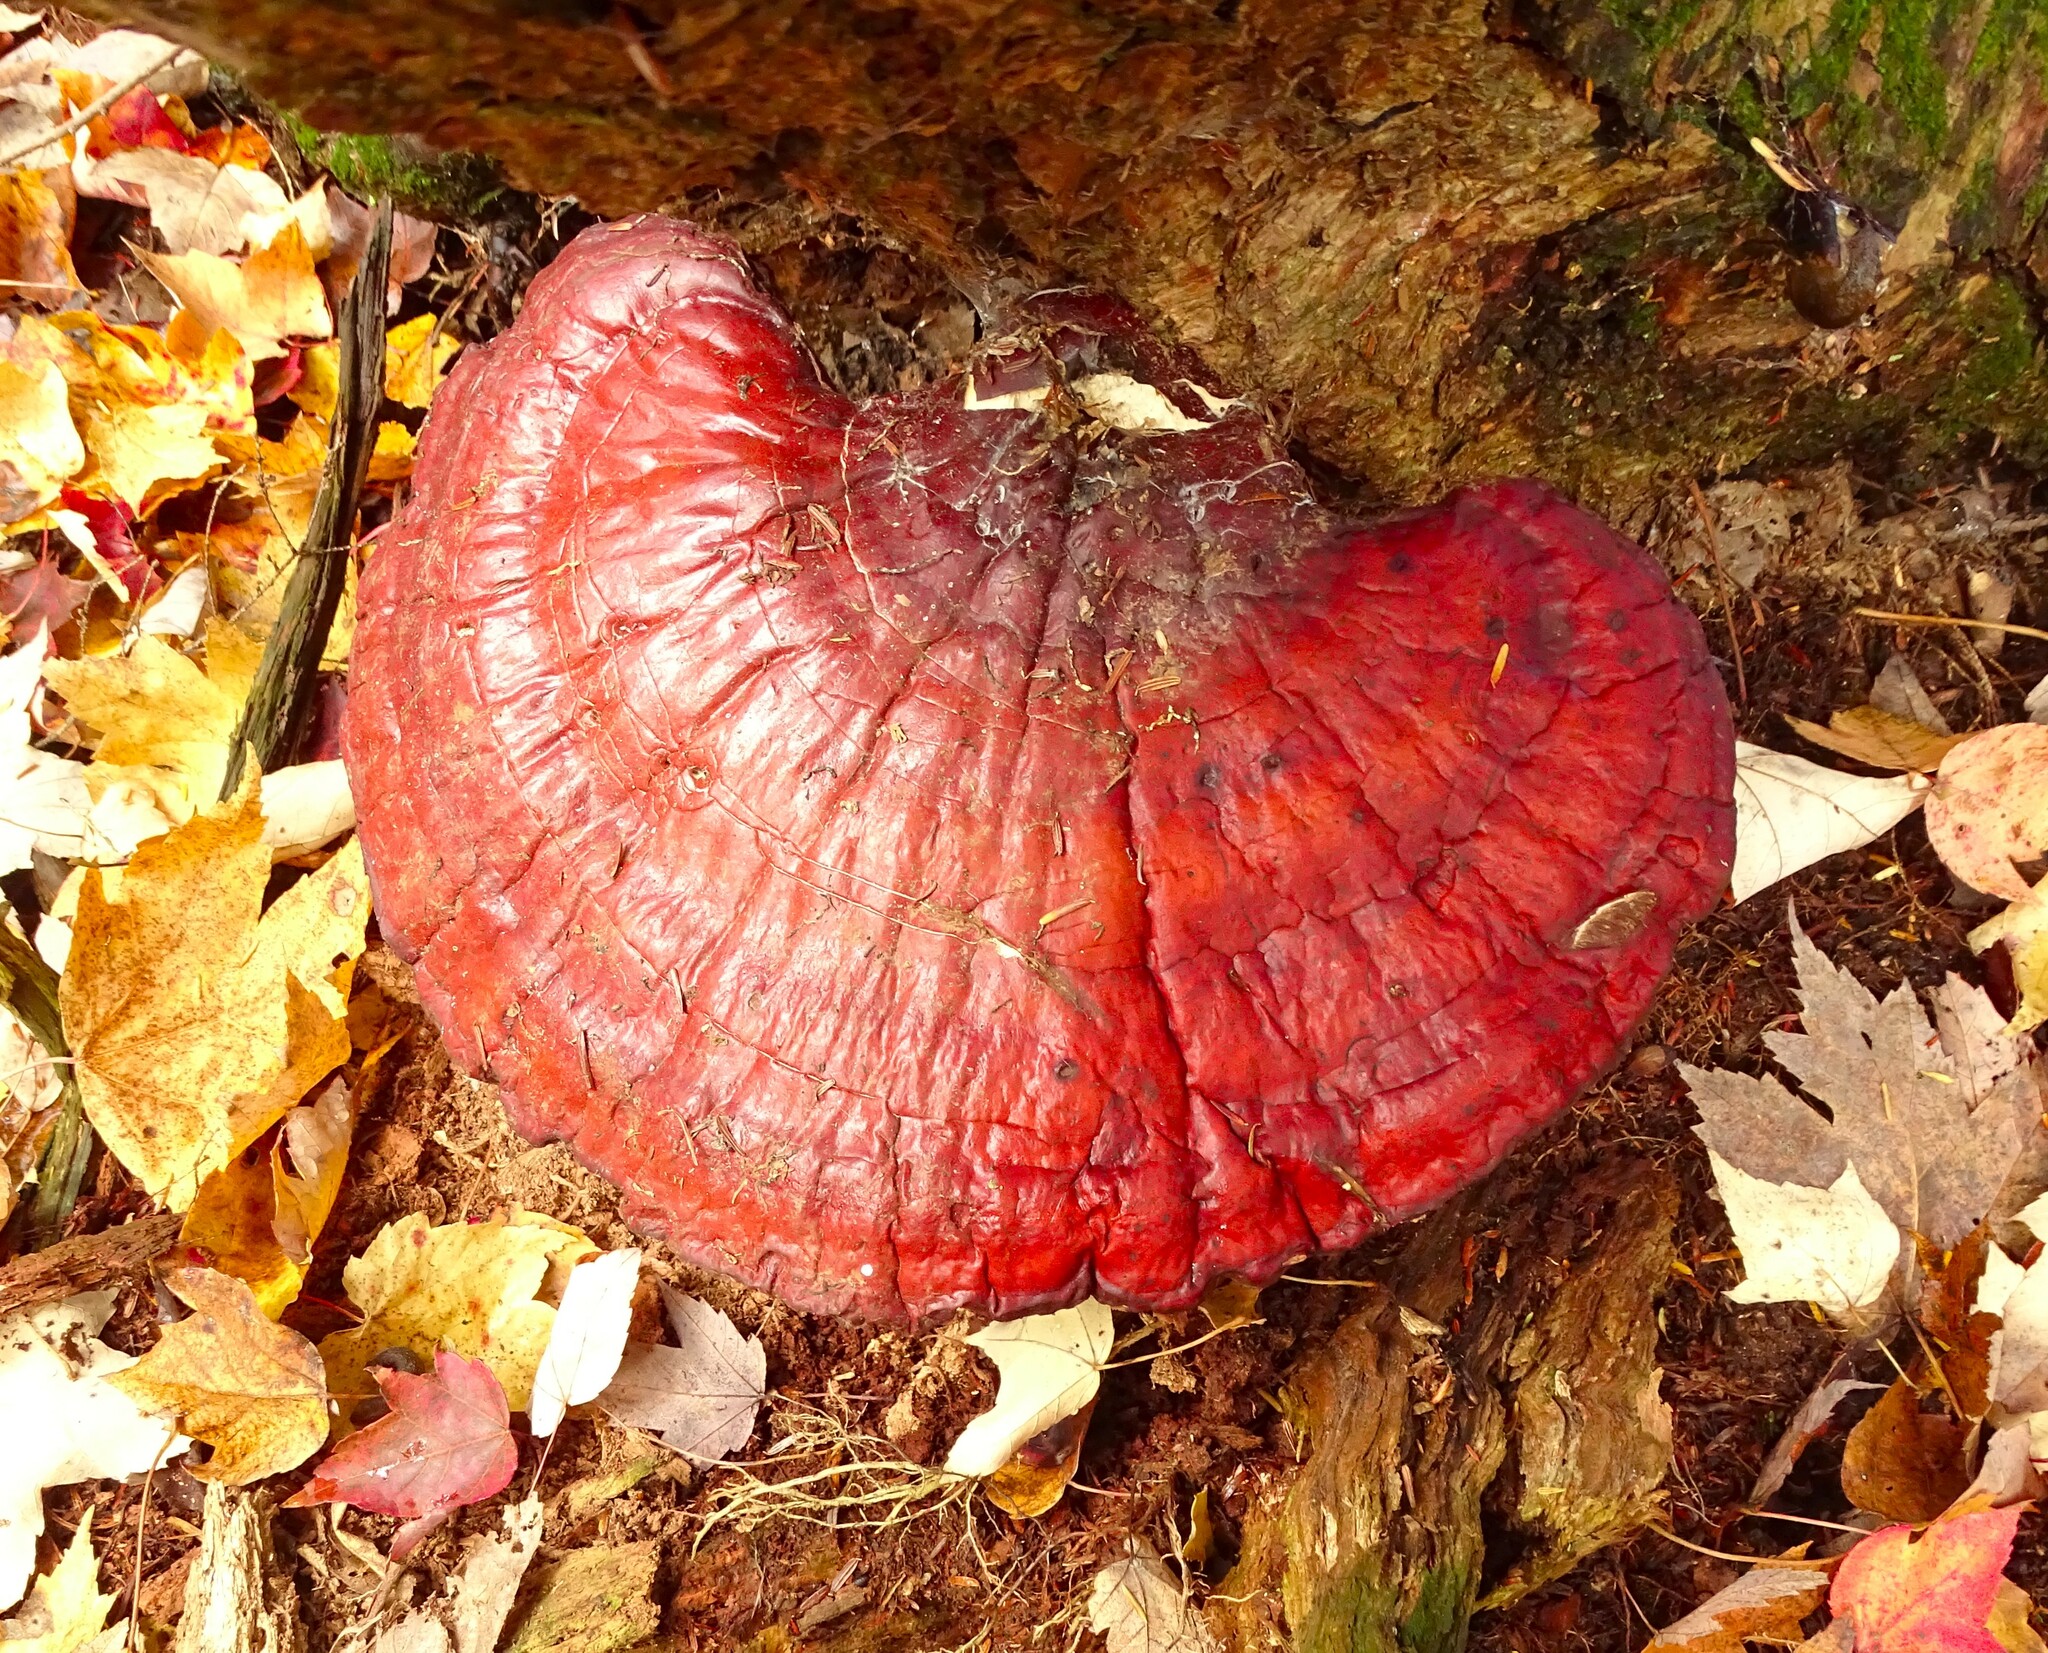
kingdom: Fungi
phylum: Basidiomycota
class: Agaricomycetes
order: Polyporales
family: Polyporaceae
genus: Ganoderma
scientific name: Ganoderma tsugae
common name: Hemlock varnish shelf
